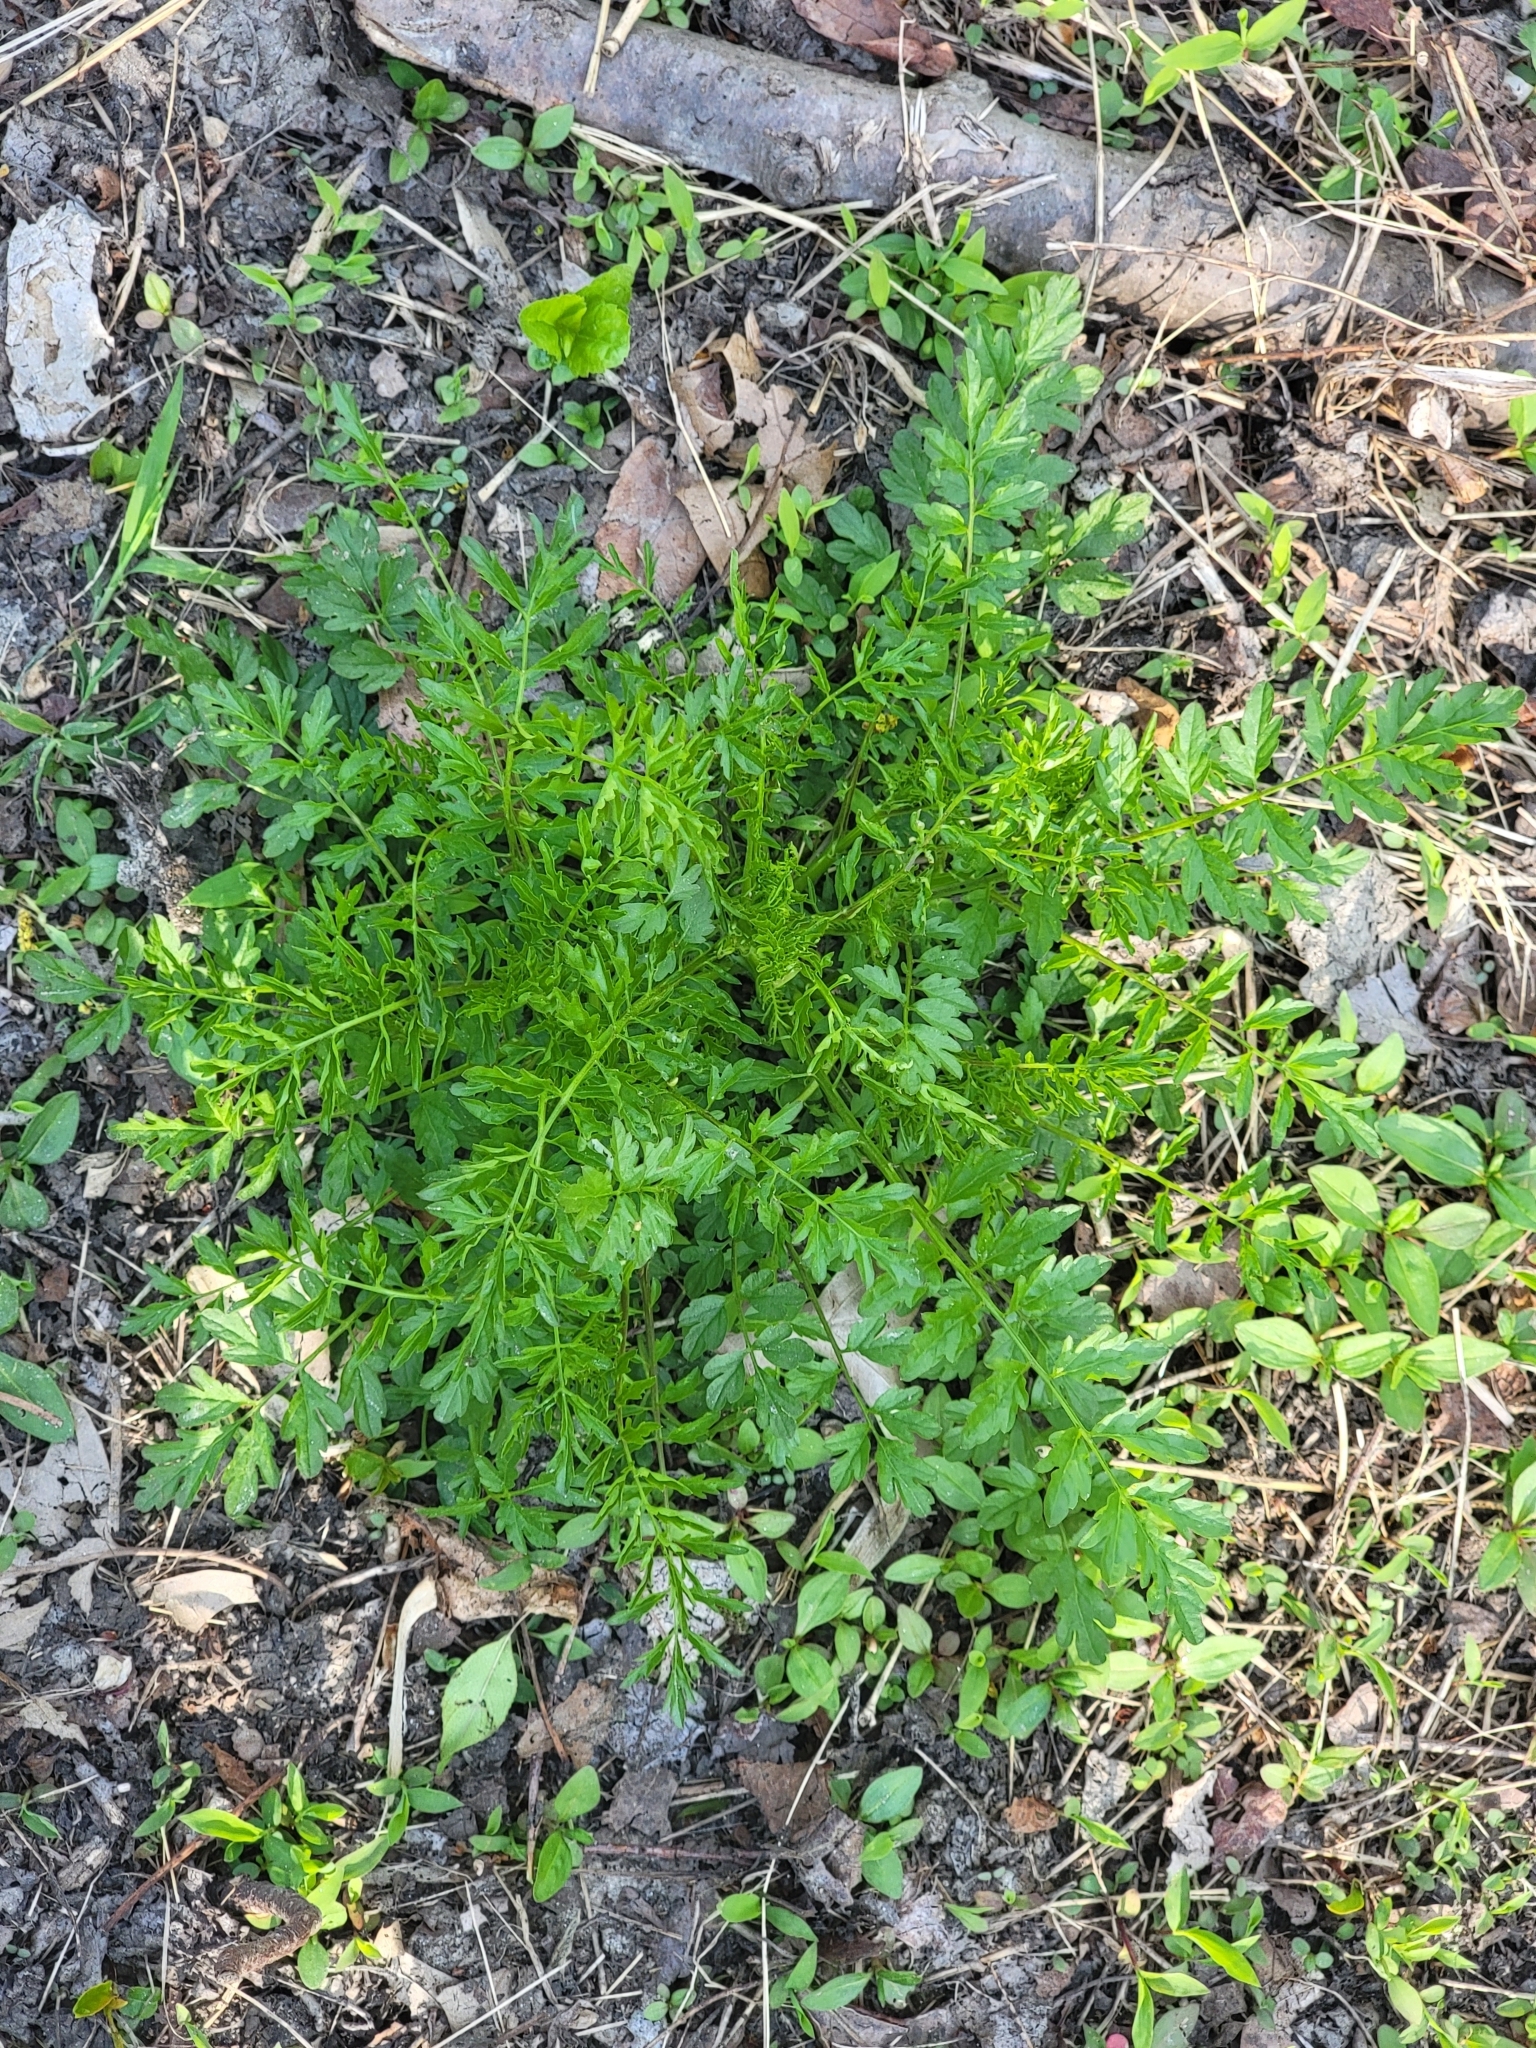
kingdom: Plantae
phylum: Tracheophyta
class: Magnoliopsida
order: Brassicales
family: Brassicaceae
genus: Cardamine
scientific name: Cardamine impatiens
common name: Narrow-leaved bitter-cress
